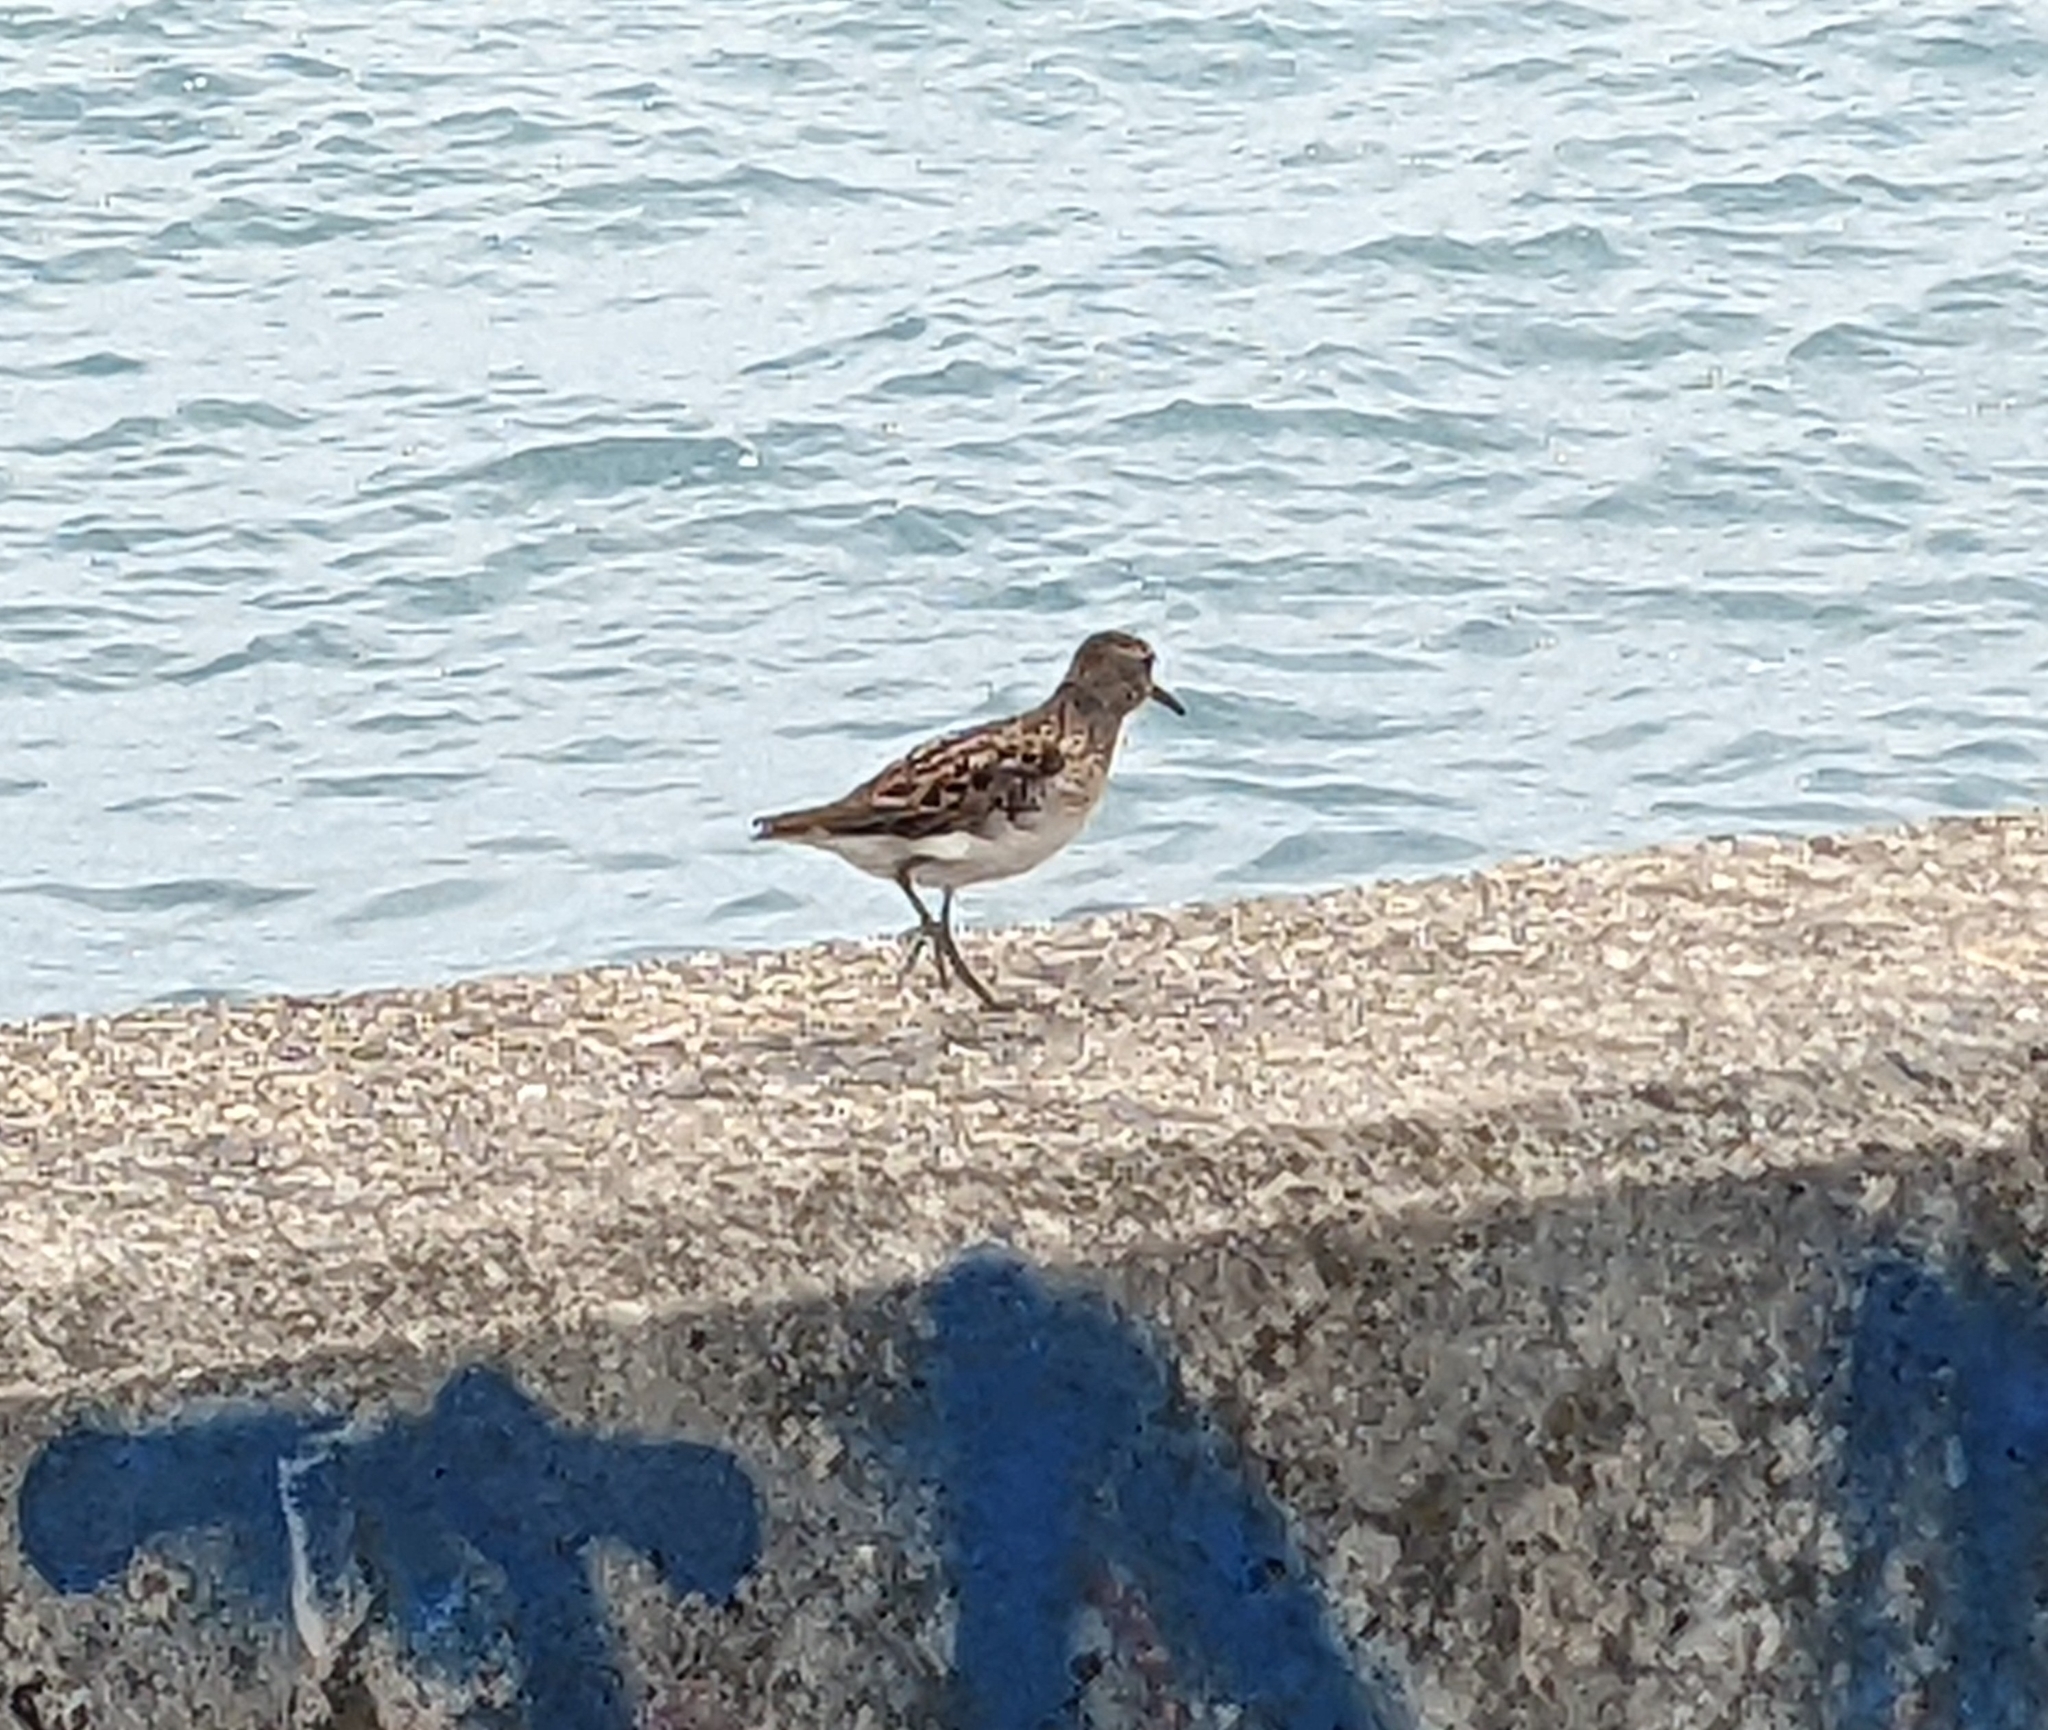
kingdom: Animalia
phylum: Chordata
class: Aves
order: Charadriiformes
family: Scolopacidae
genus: Calidris
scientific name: Calidris minutilla
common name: Least sandpiper
